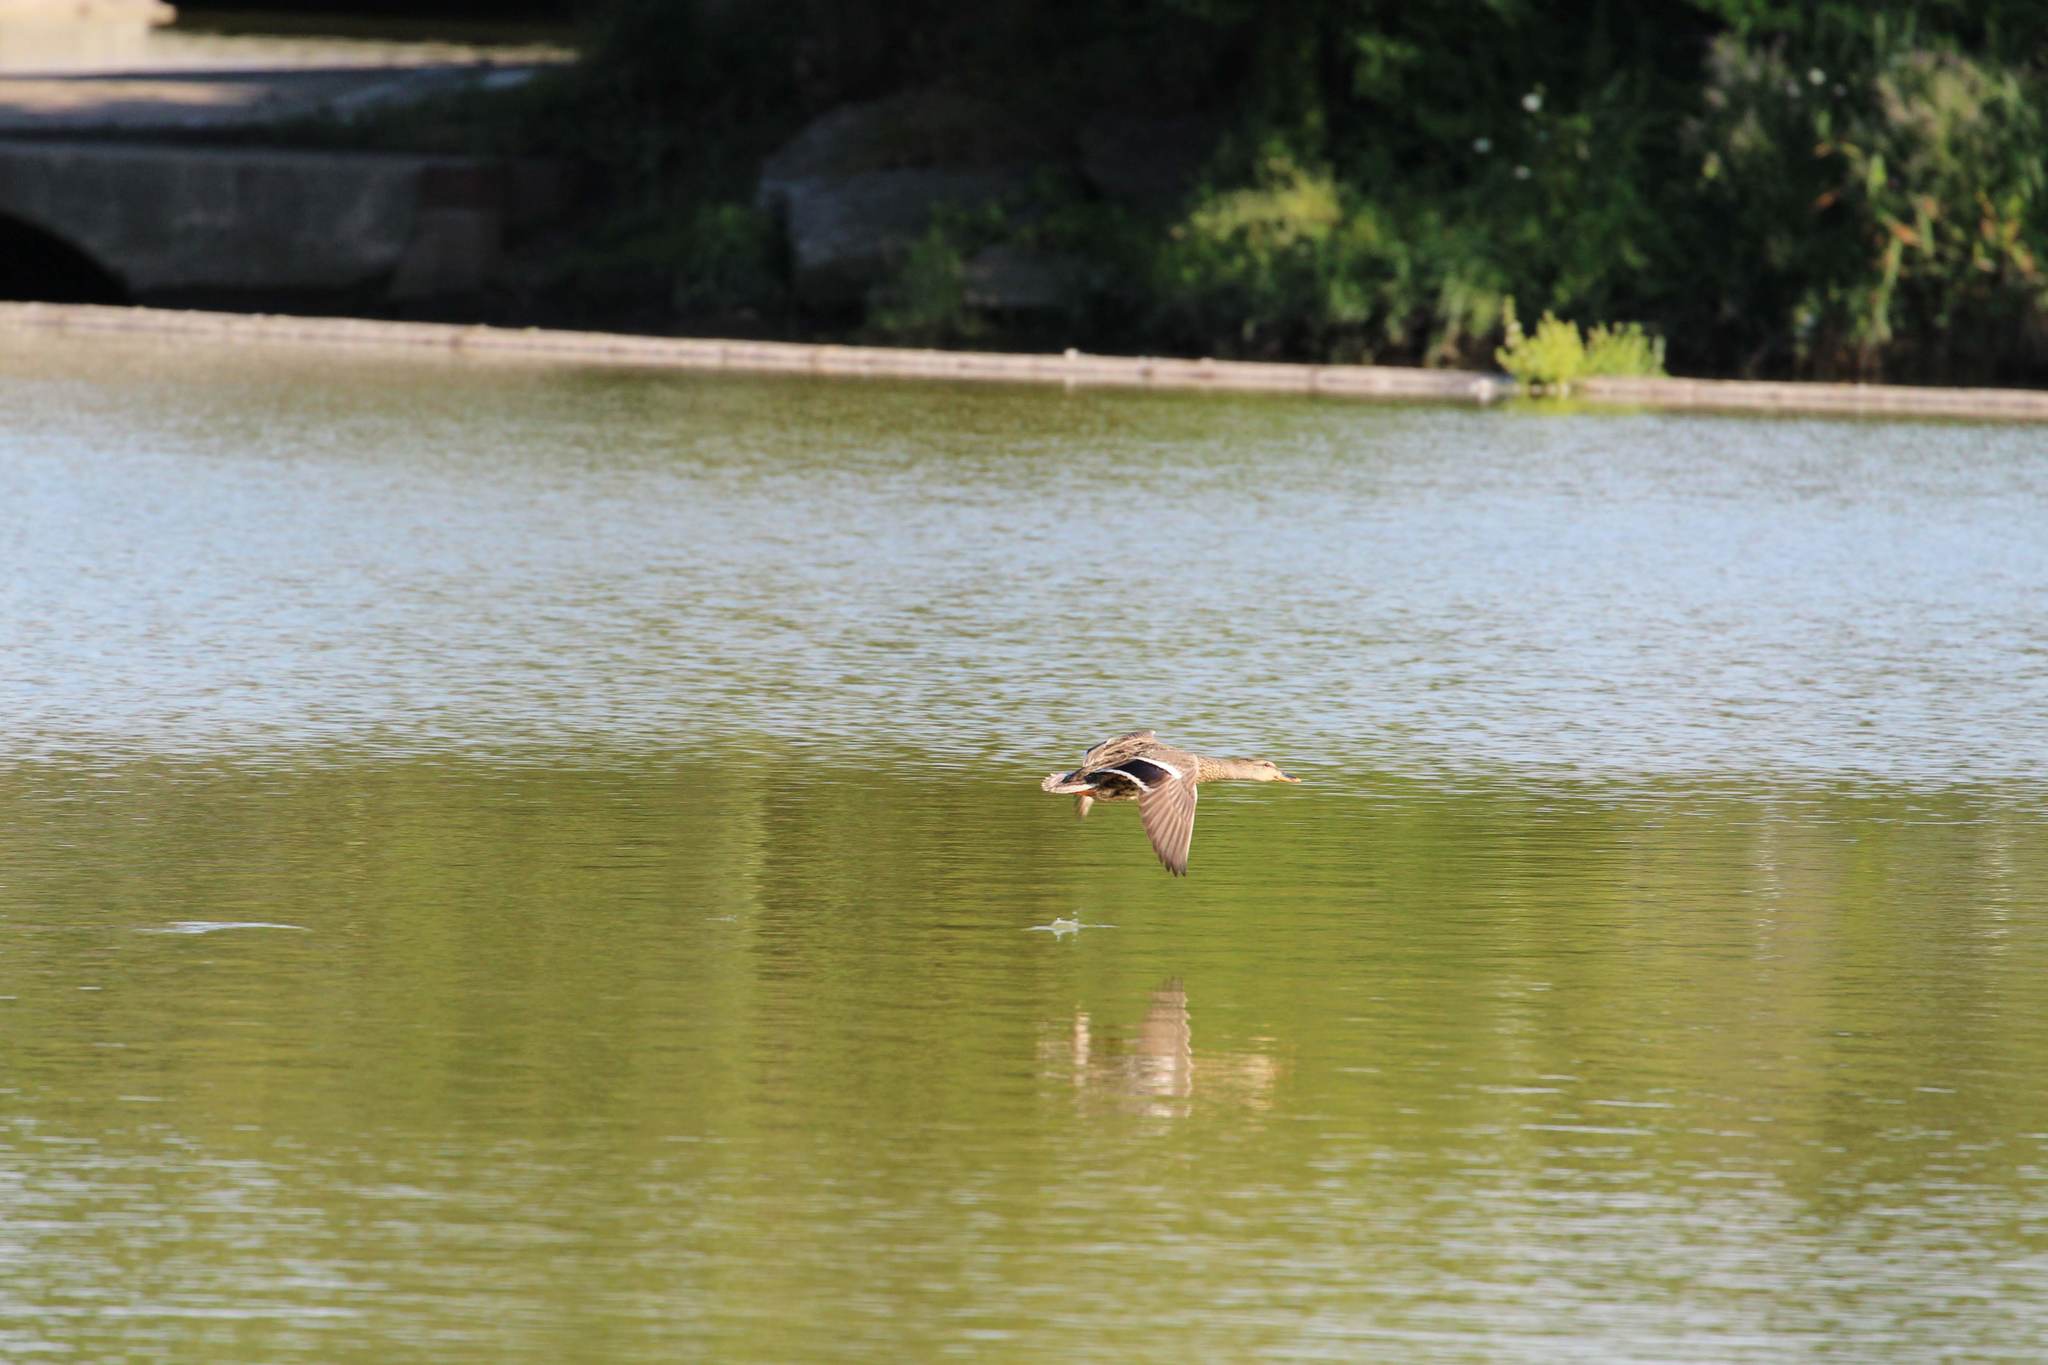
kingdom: Animalia
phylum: Chordata
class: Aves
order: Anseriformes
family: Anatidae
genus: Anas
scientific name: Anas platyrhynchos
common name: Mallard
